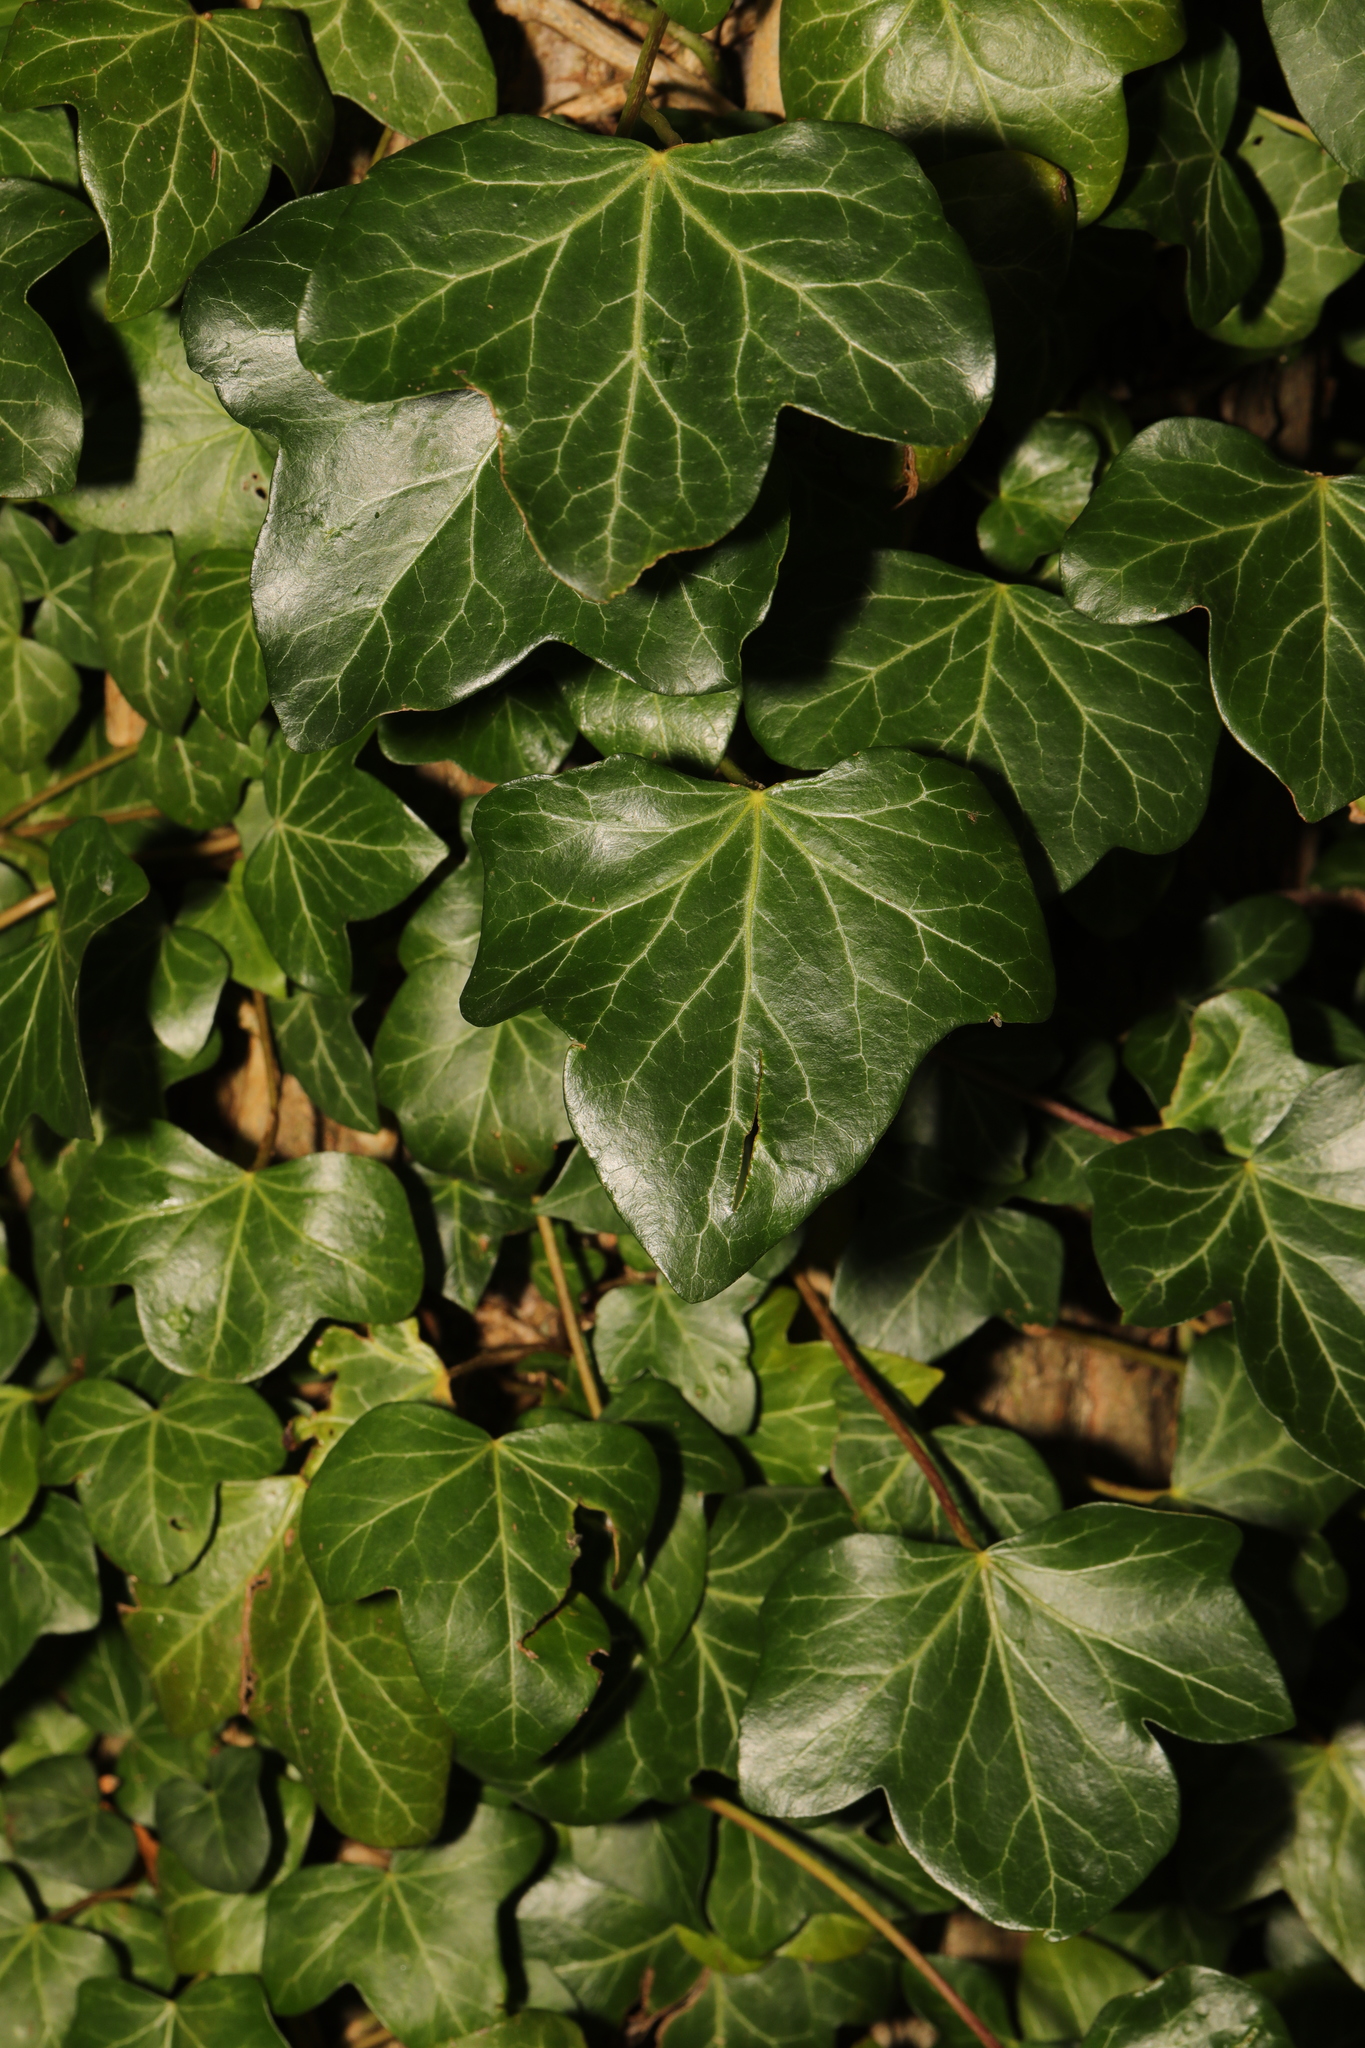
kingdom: Plantae
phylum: Tracheophyta
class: Magnoliopsida
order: Apiales
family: Araliaceae
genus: Hedera
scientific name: Hedera helix
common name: Ivy
